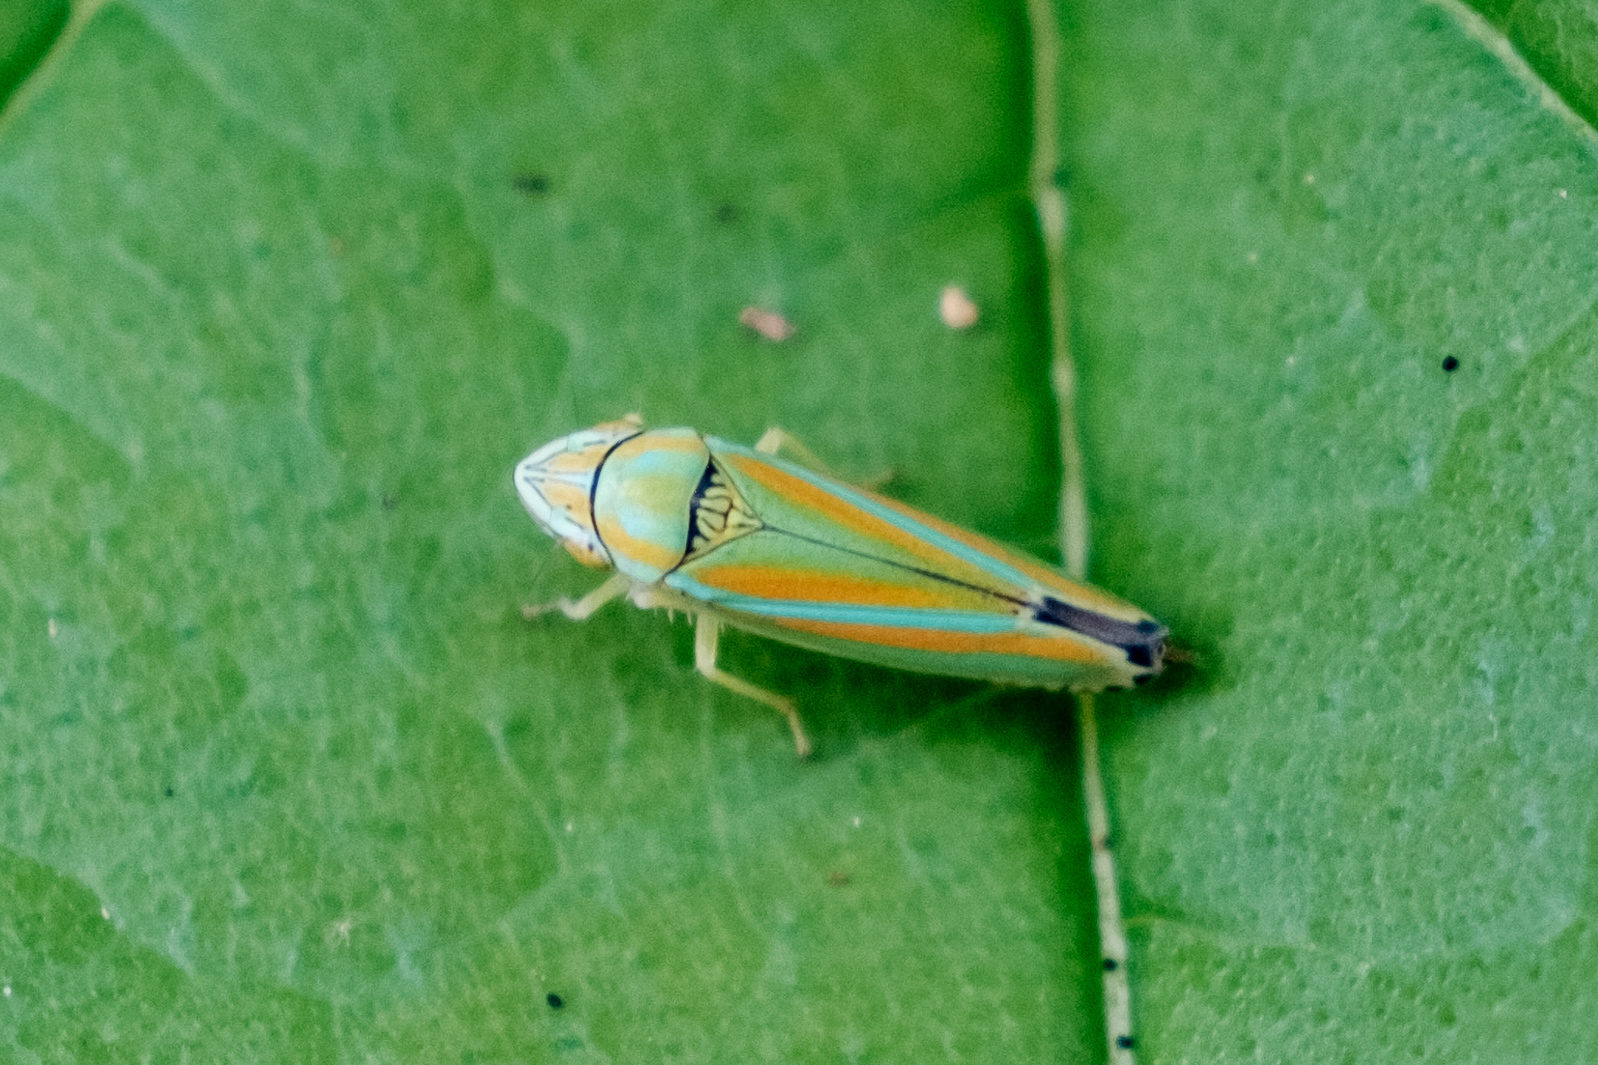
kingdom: Animalia
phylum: Arthropoda
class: Insecta
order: Hemiptera
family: Cicadellidae
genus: Graphocephala
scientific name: Graphocephala versuta
